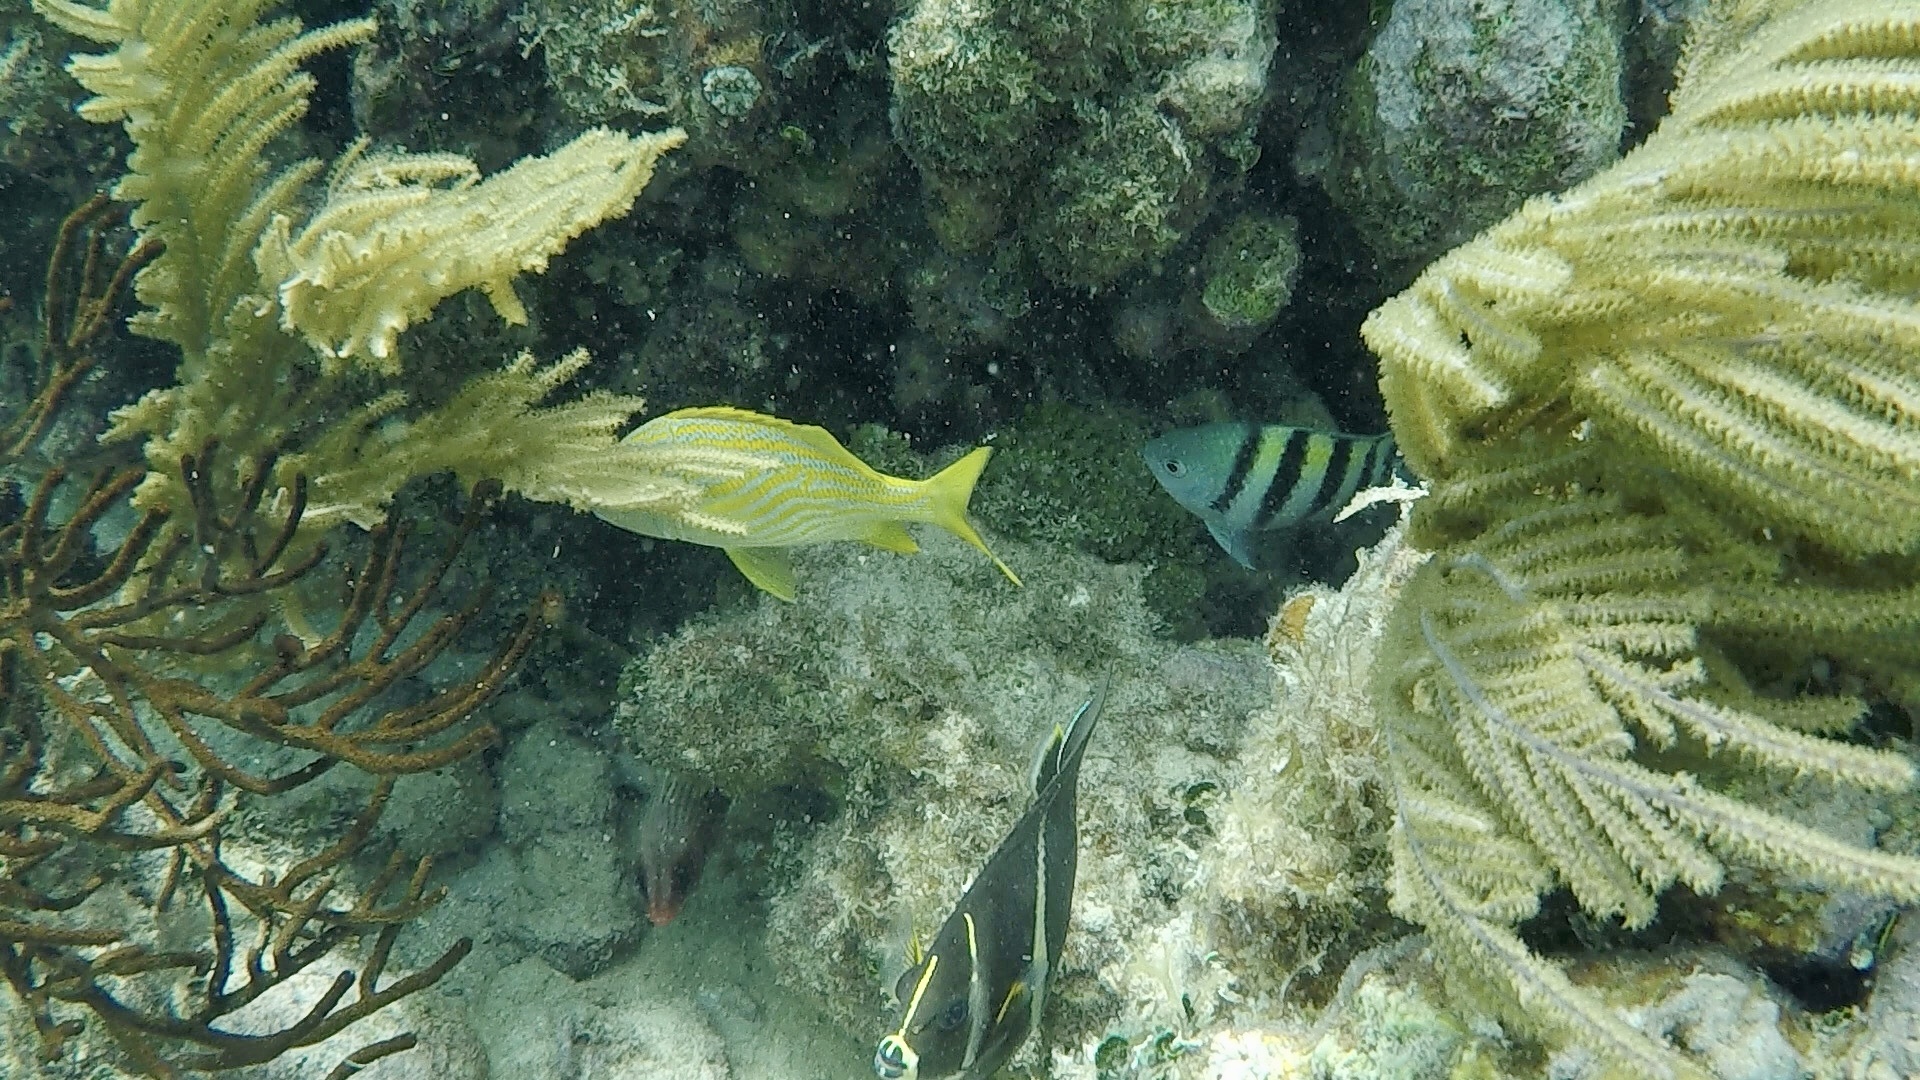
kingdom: Animalia
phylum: Chordata
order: Perciformes
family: Haemulidae
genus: Haemulon
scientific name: Haemulon flavolineatum
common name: French grunt
